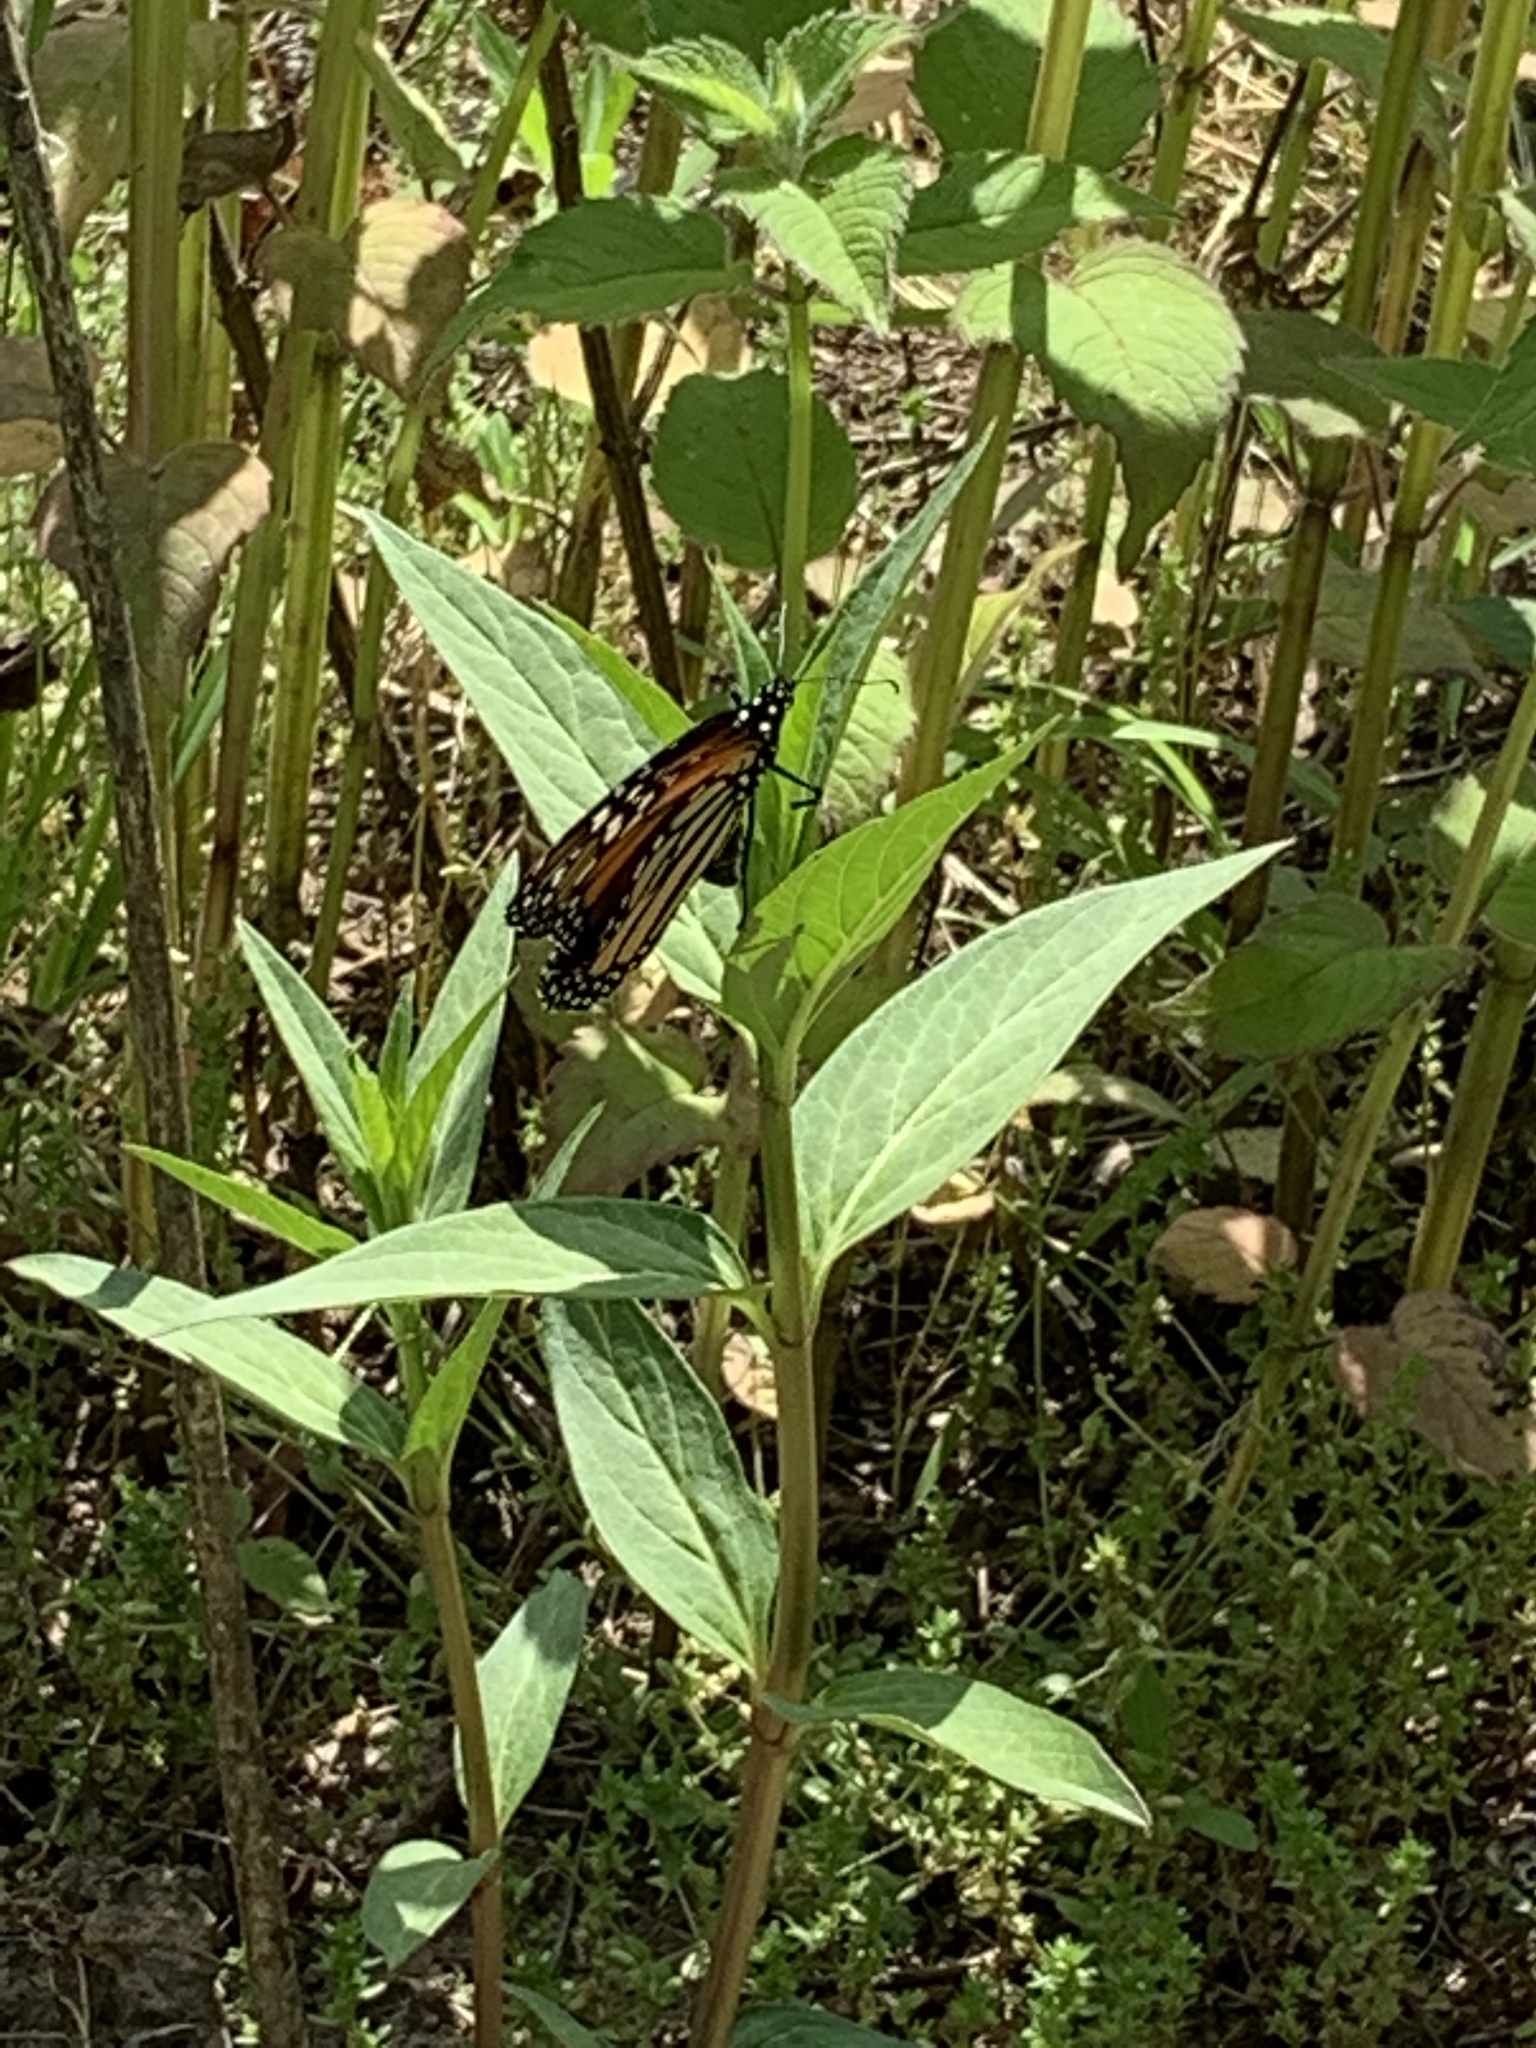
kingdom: Animalia
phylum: Arthropoda
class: Insecta
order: Lepidoptera
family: Nymphalidae
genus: Danaus
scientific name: Danaus plexippus
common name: Monarch
